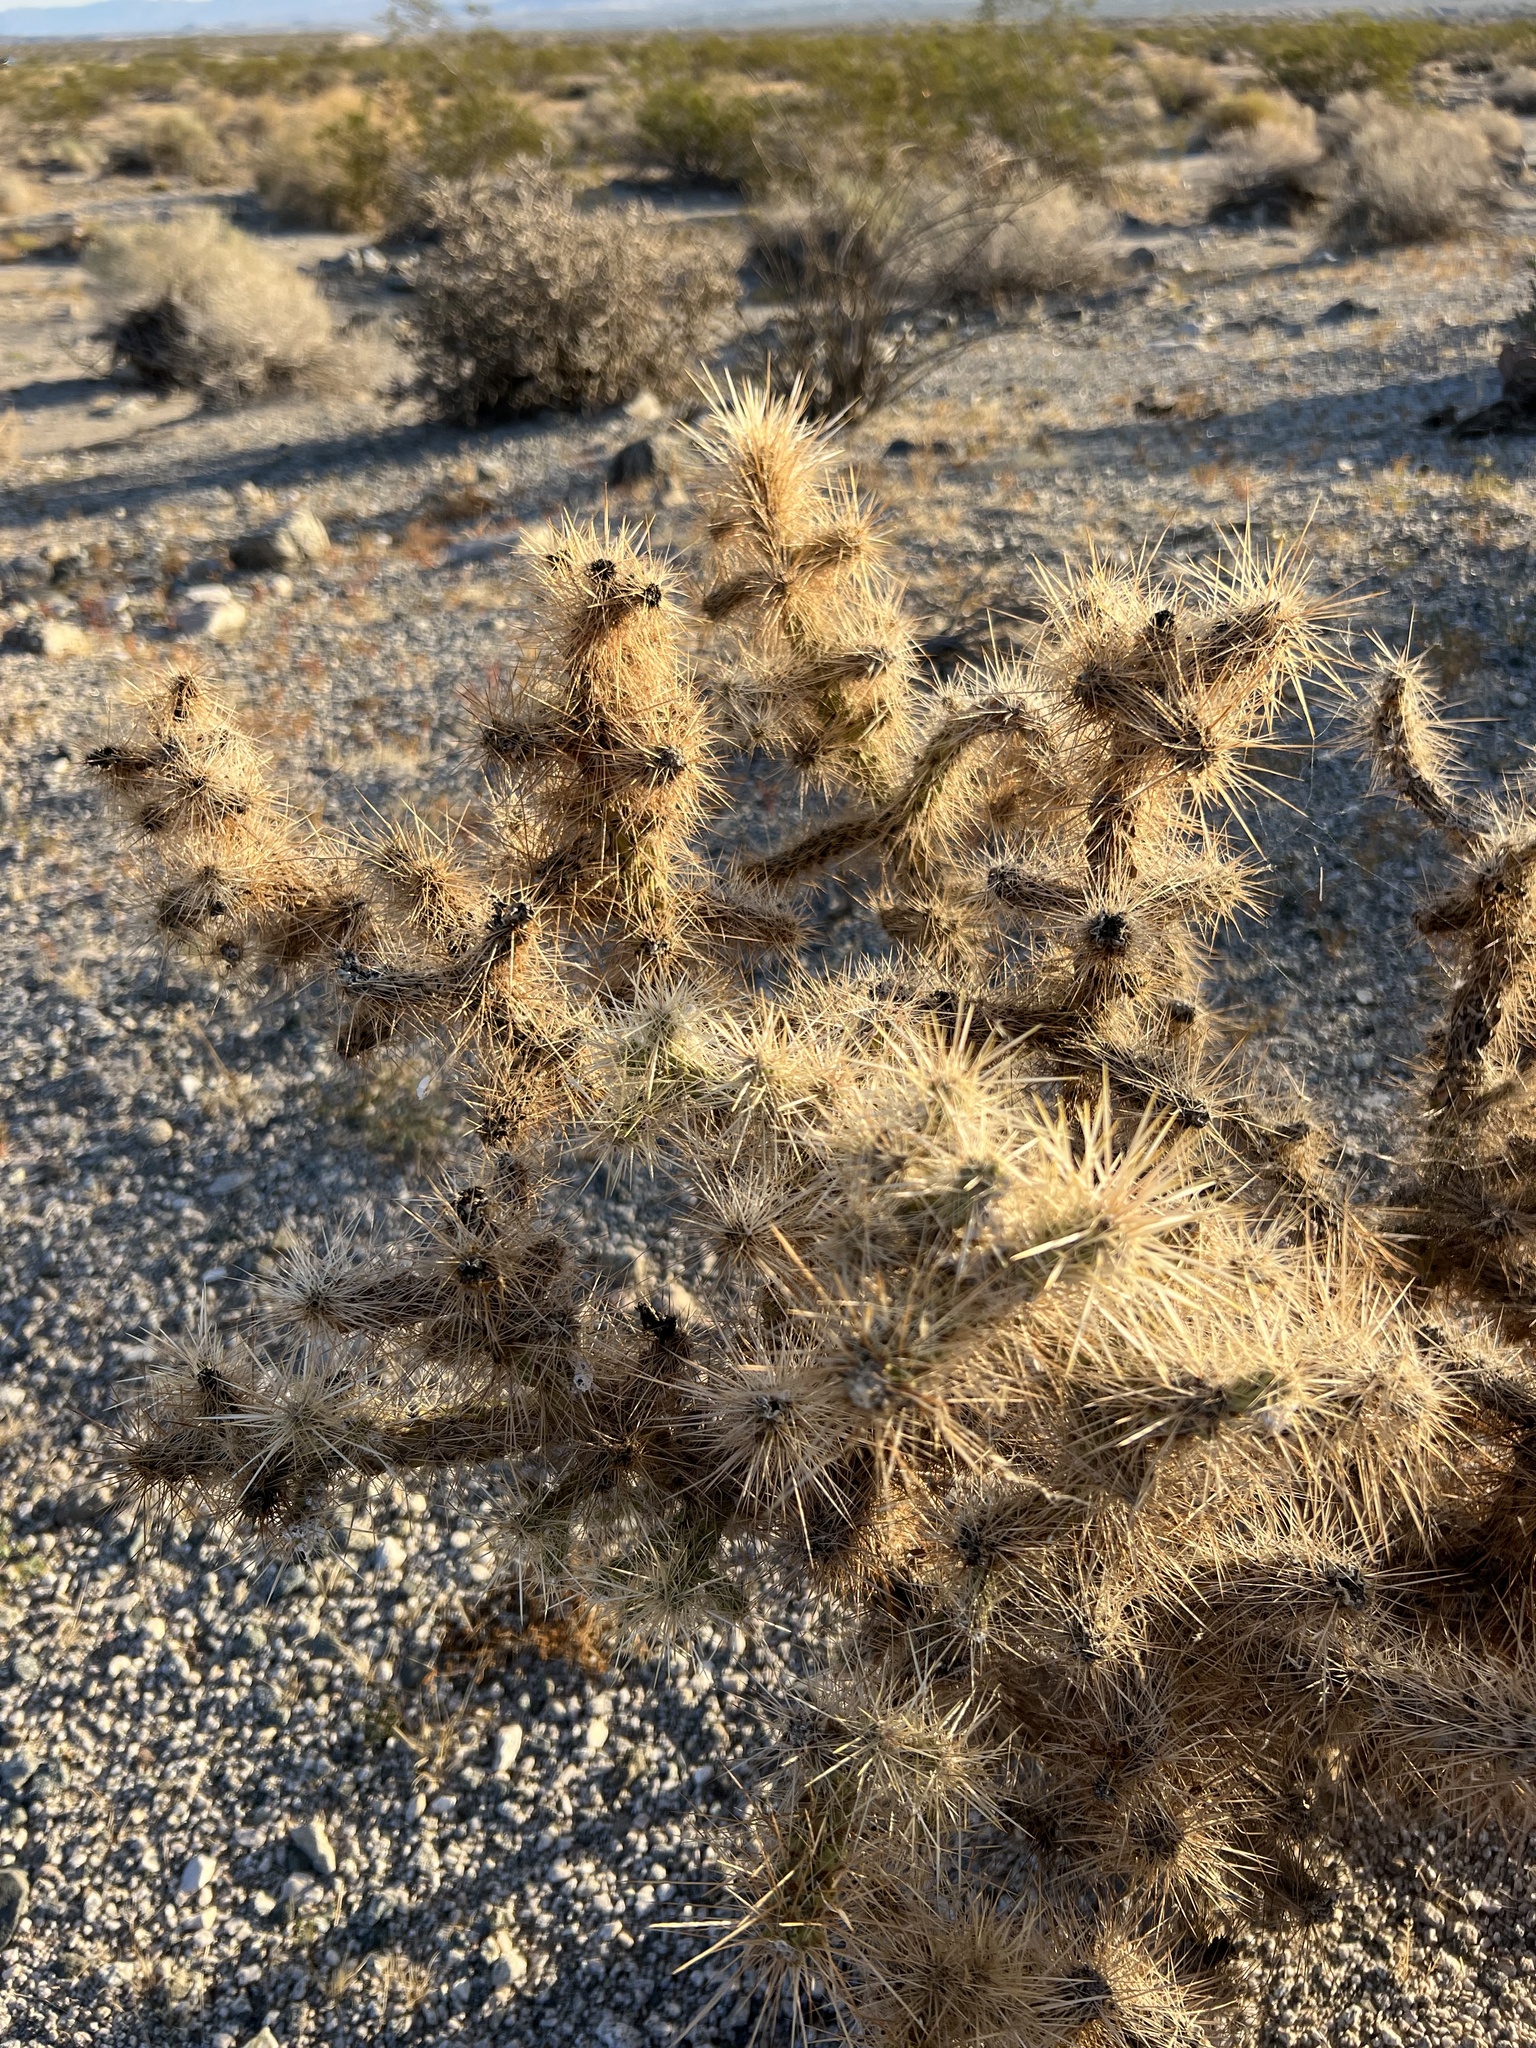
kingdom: Plantae
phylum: Tracheophyta
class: Magnoliopsida
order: Caryophyllales
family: Cactaceae
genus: Cylindropuntia
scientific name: Cylindropuntia echinocarpa
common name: Ground cholla
